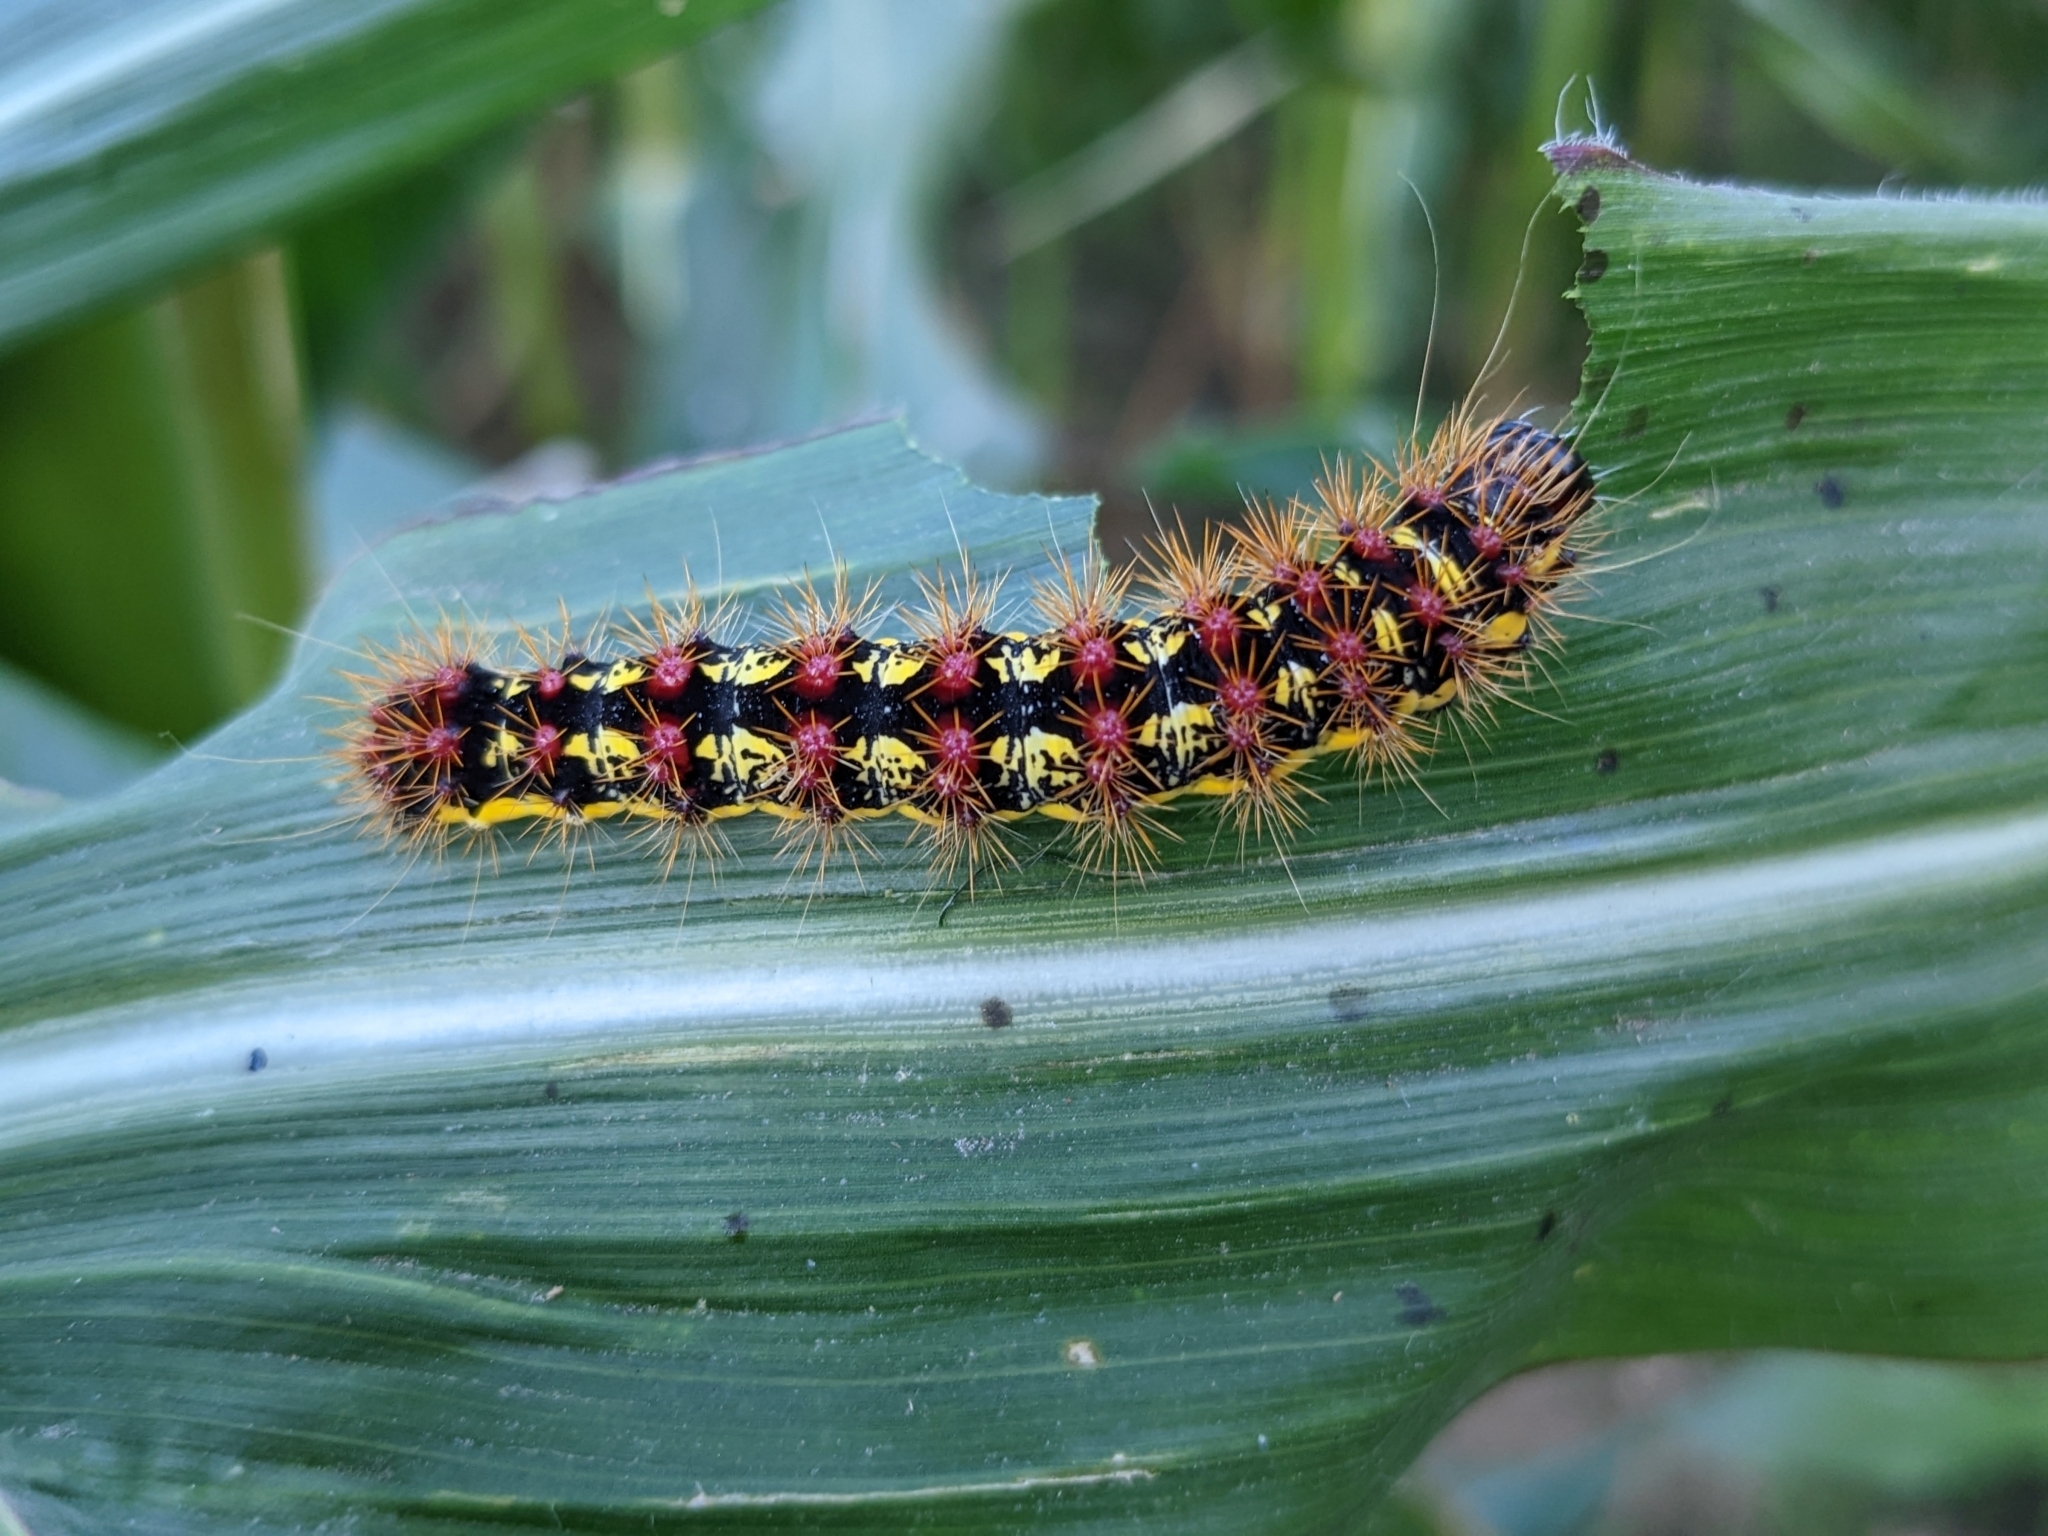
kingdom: Animalia
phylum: Arthropoda
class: Insecta
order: Lepidoptera
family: Noctuidae
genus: Acronicta
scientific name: Acronicta oblinita
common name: Smeared dagger
